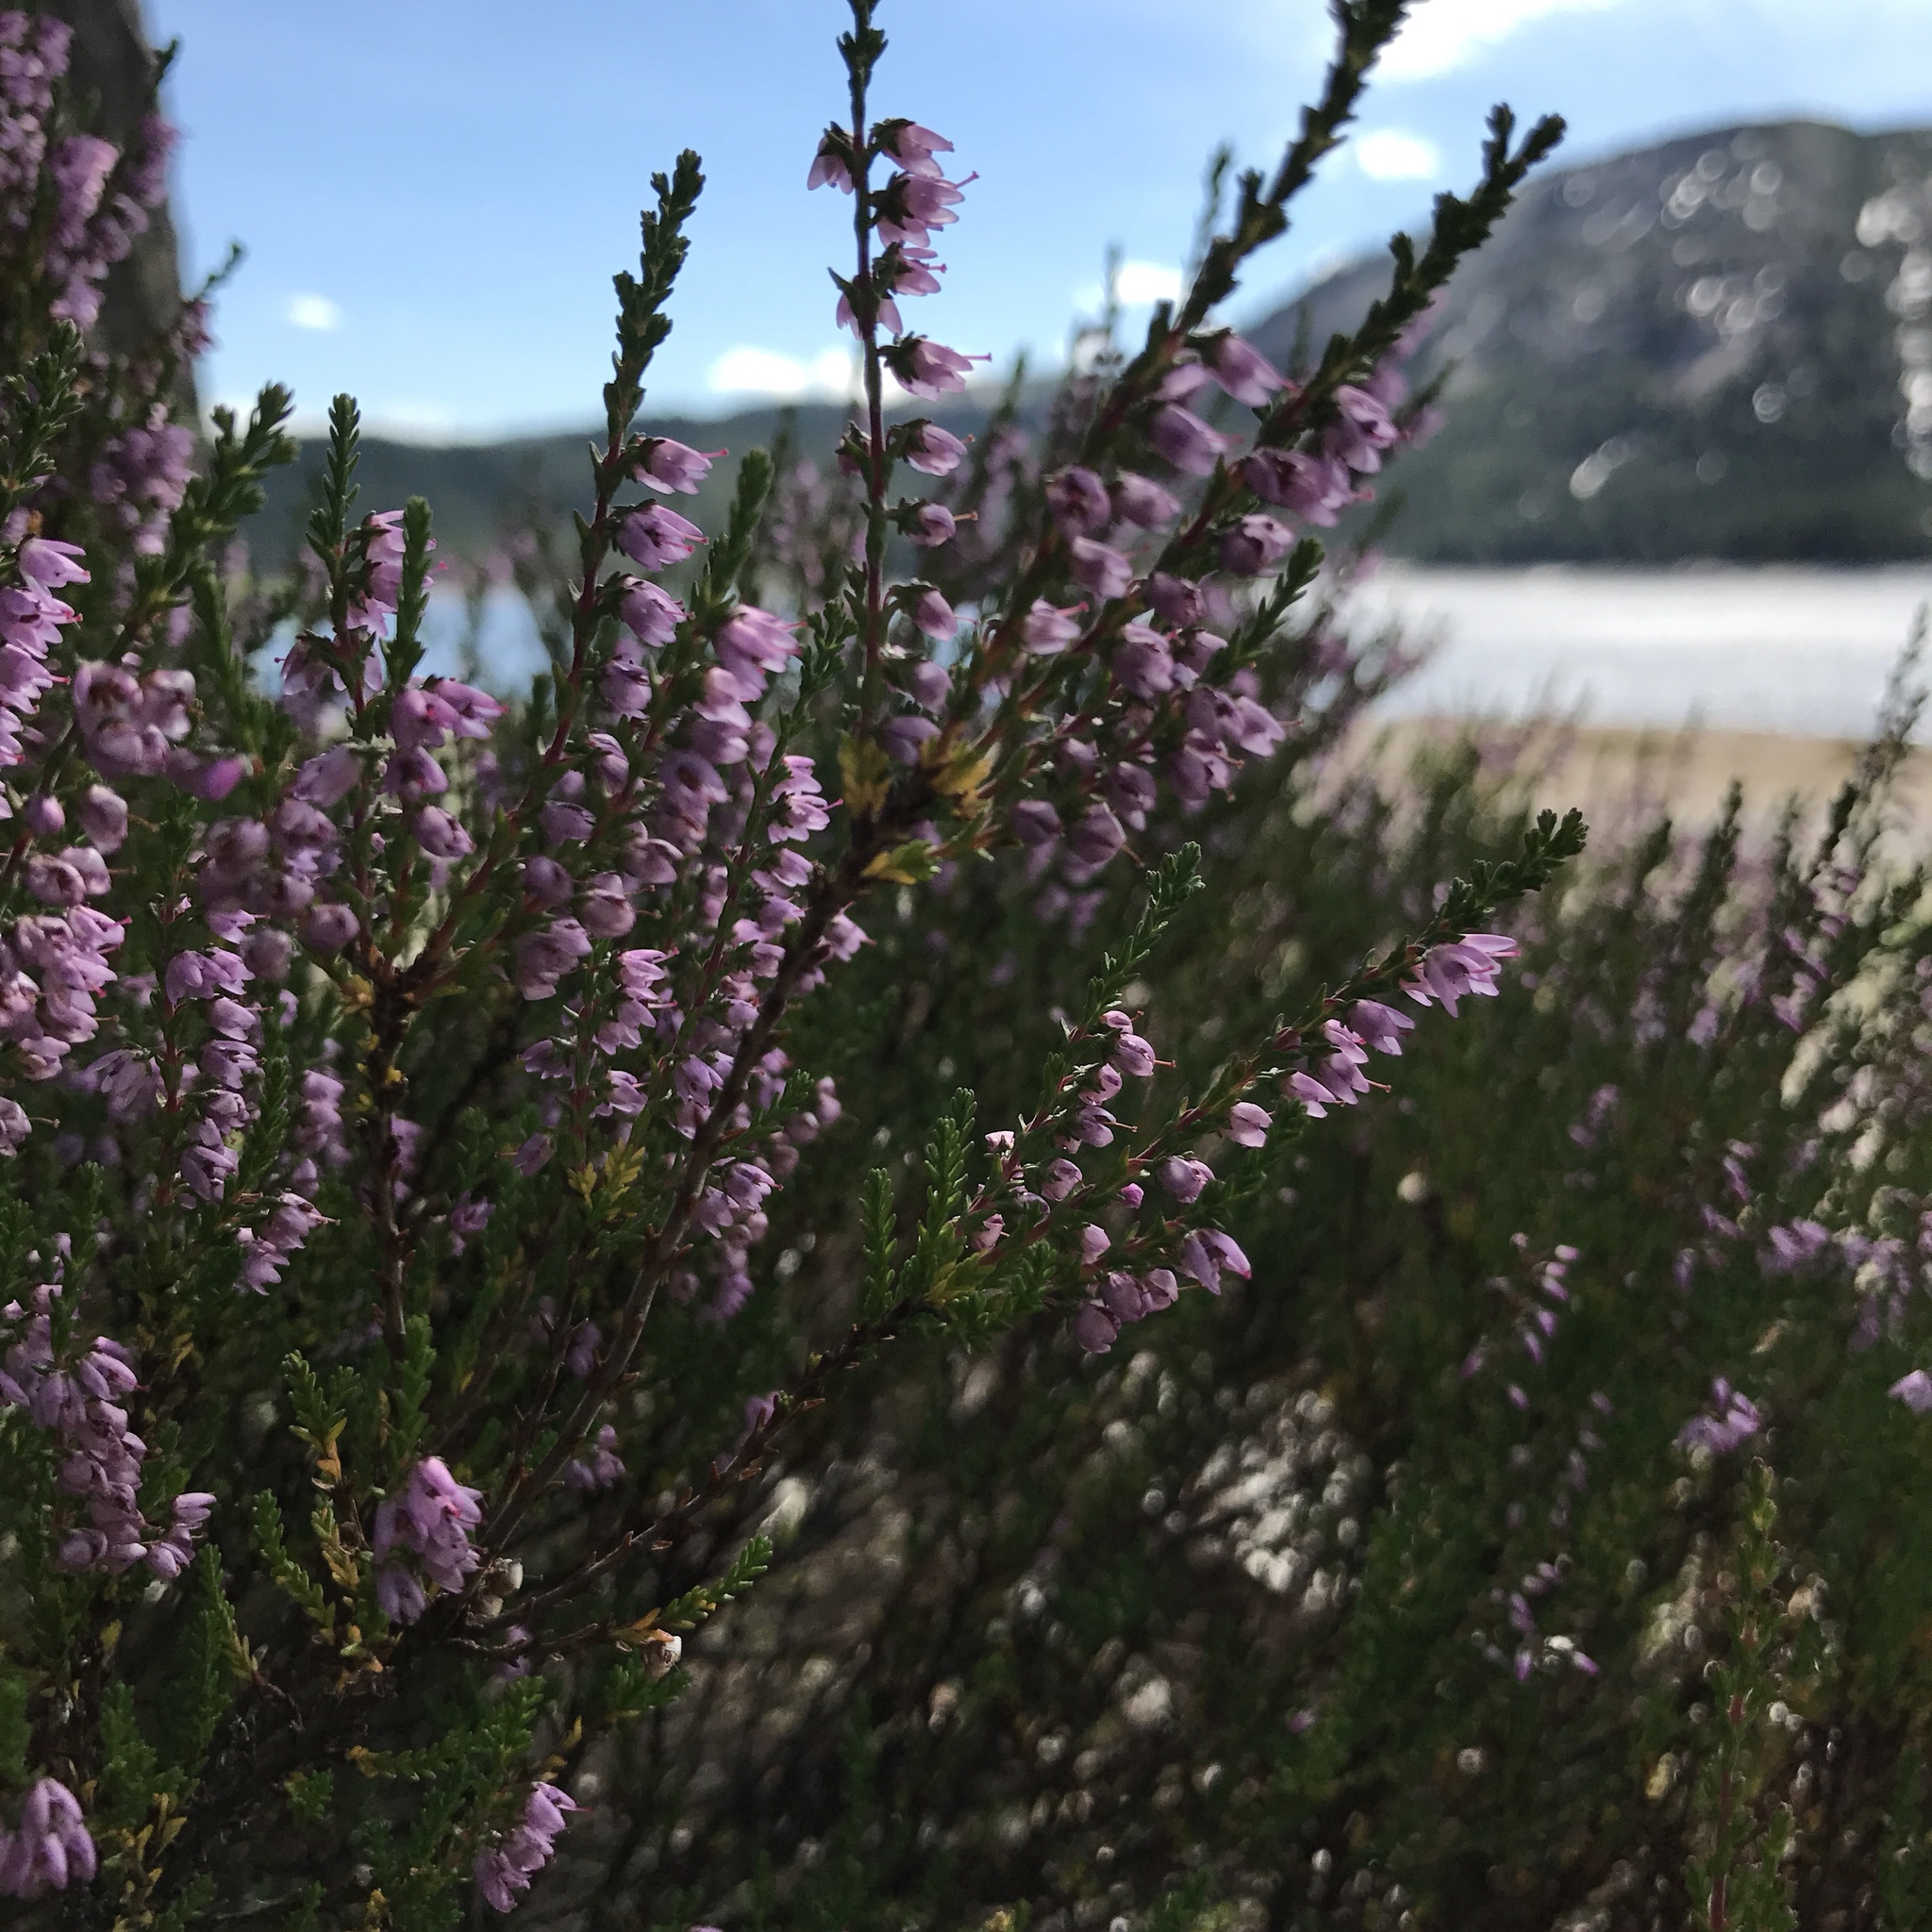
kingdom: Plantae
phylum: Tracheophyta
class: Magnoliopsida
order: Ericales
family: Ericaceae
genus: Calluna
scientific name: Calluna vulgaris
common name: Heather
